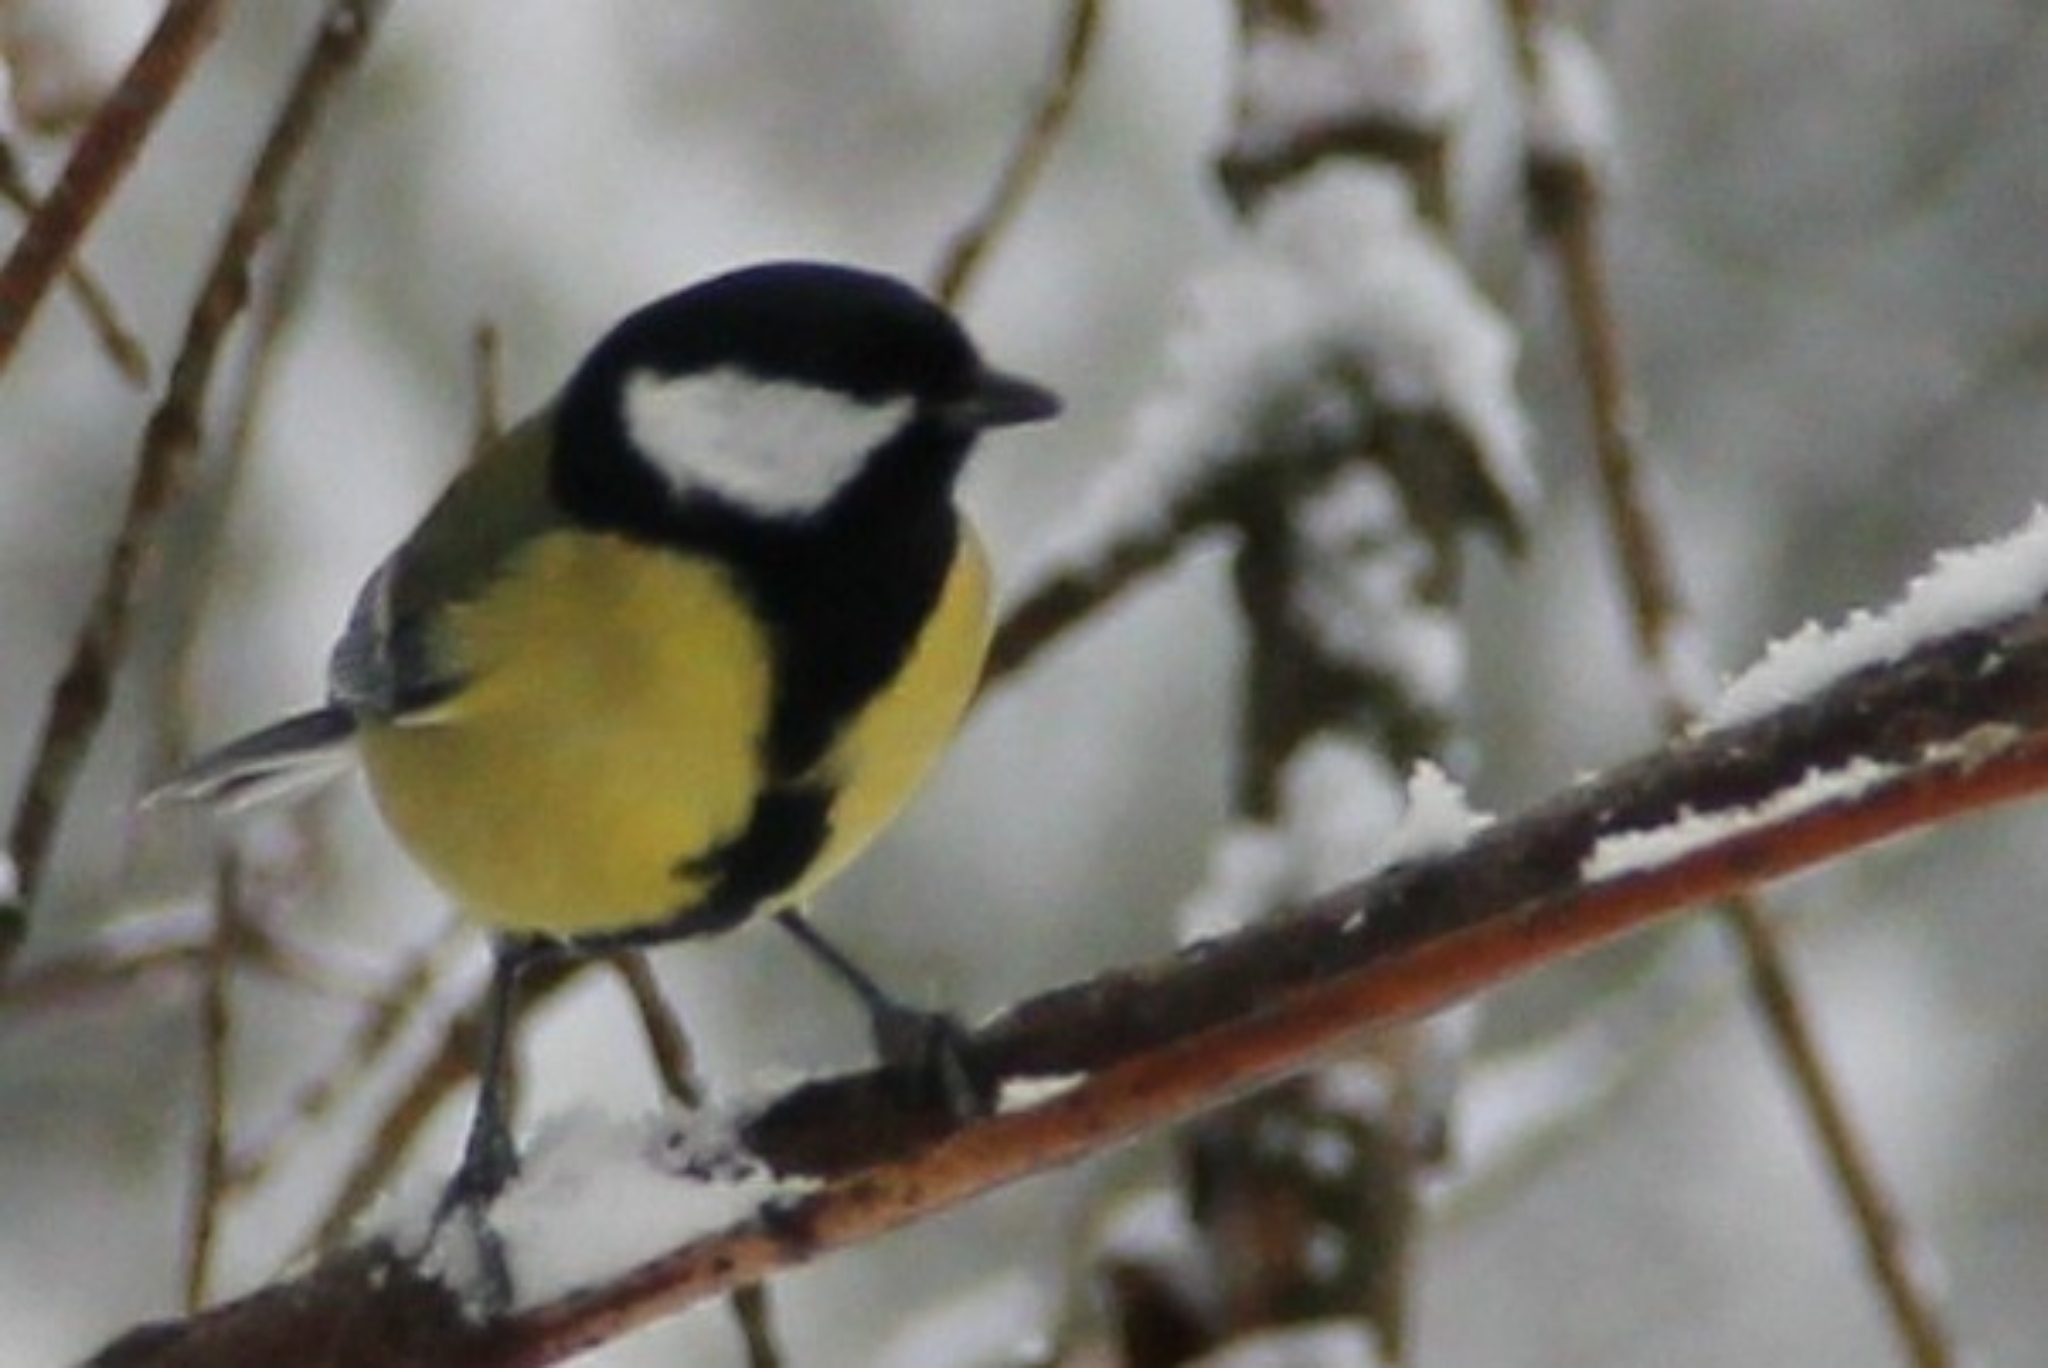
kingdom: Animalia
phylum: Chordata
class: Aves
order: Passeriformes
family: Paridae
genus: Parus
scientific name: Parus major
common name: Great tit
